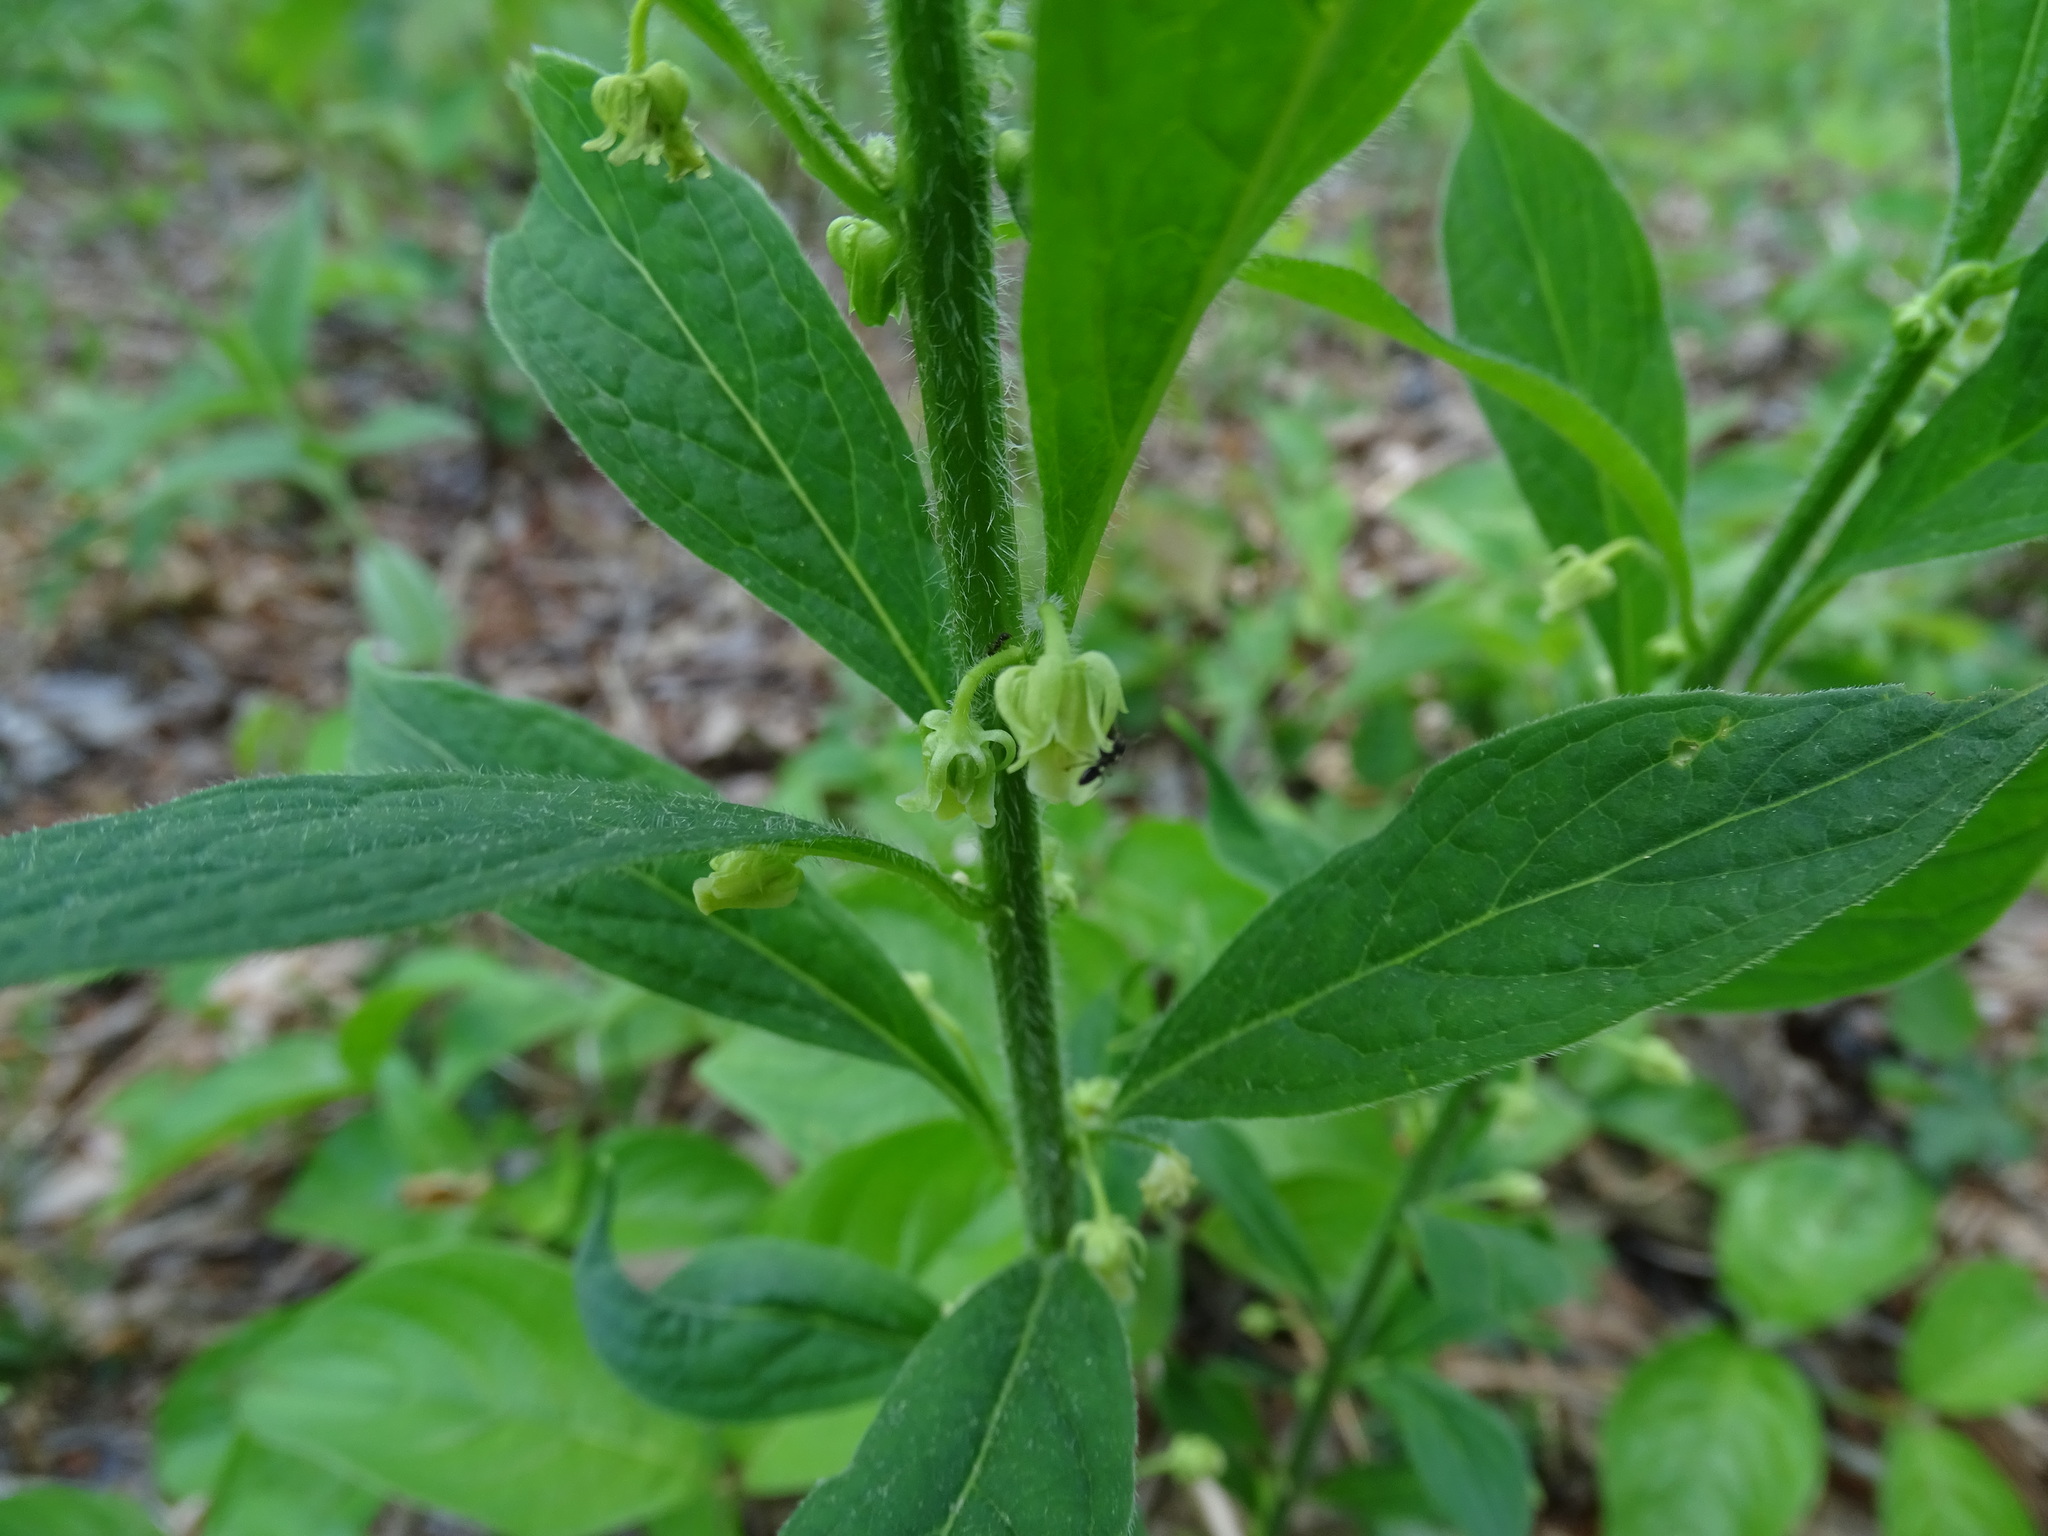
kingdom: Plantae
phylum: Tracheophyta
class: Magnoliopsida
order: Malpighiales
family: Violaceae
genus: Cubelium
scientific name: Cubelium concolor
